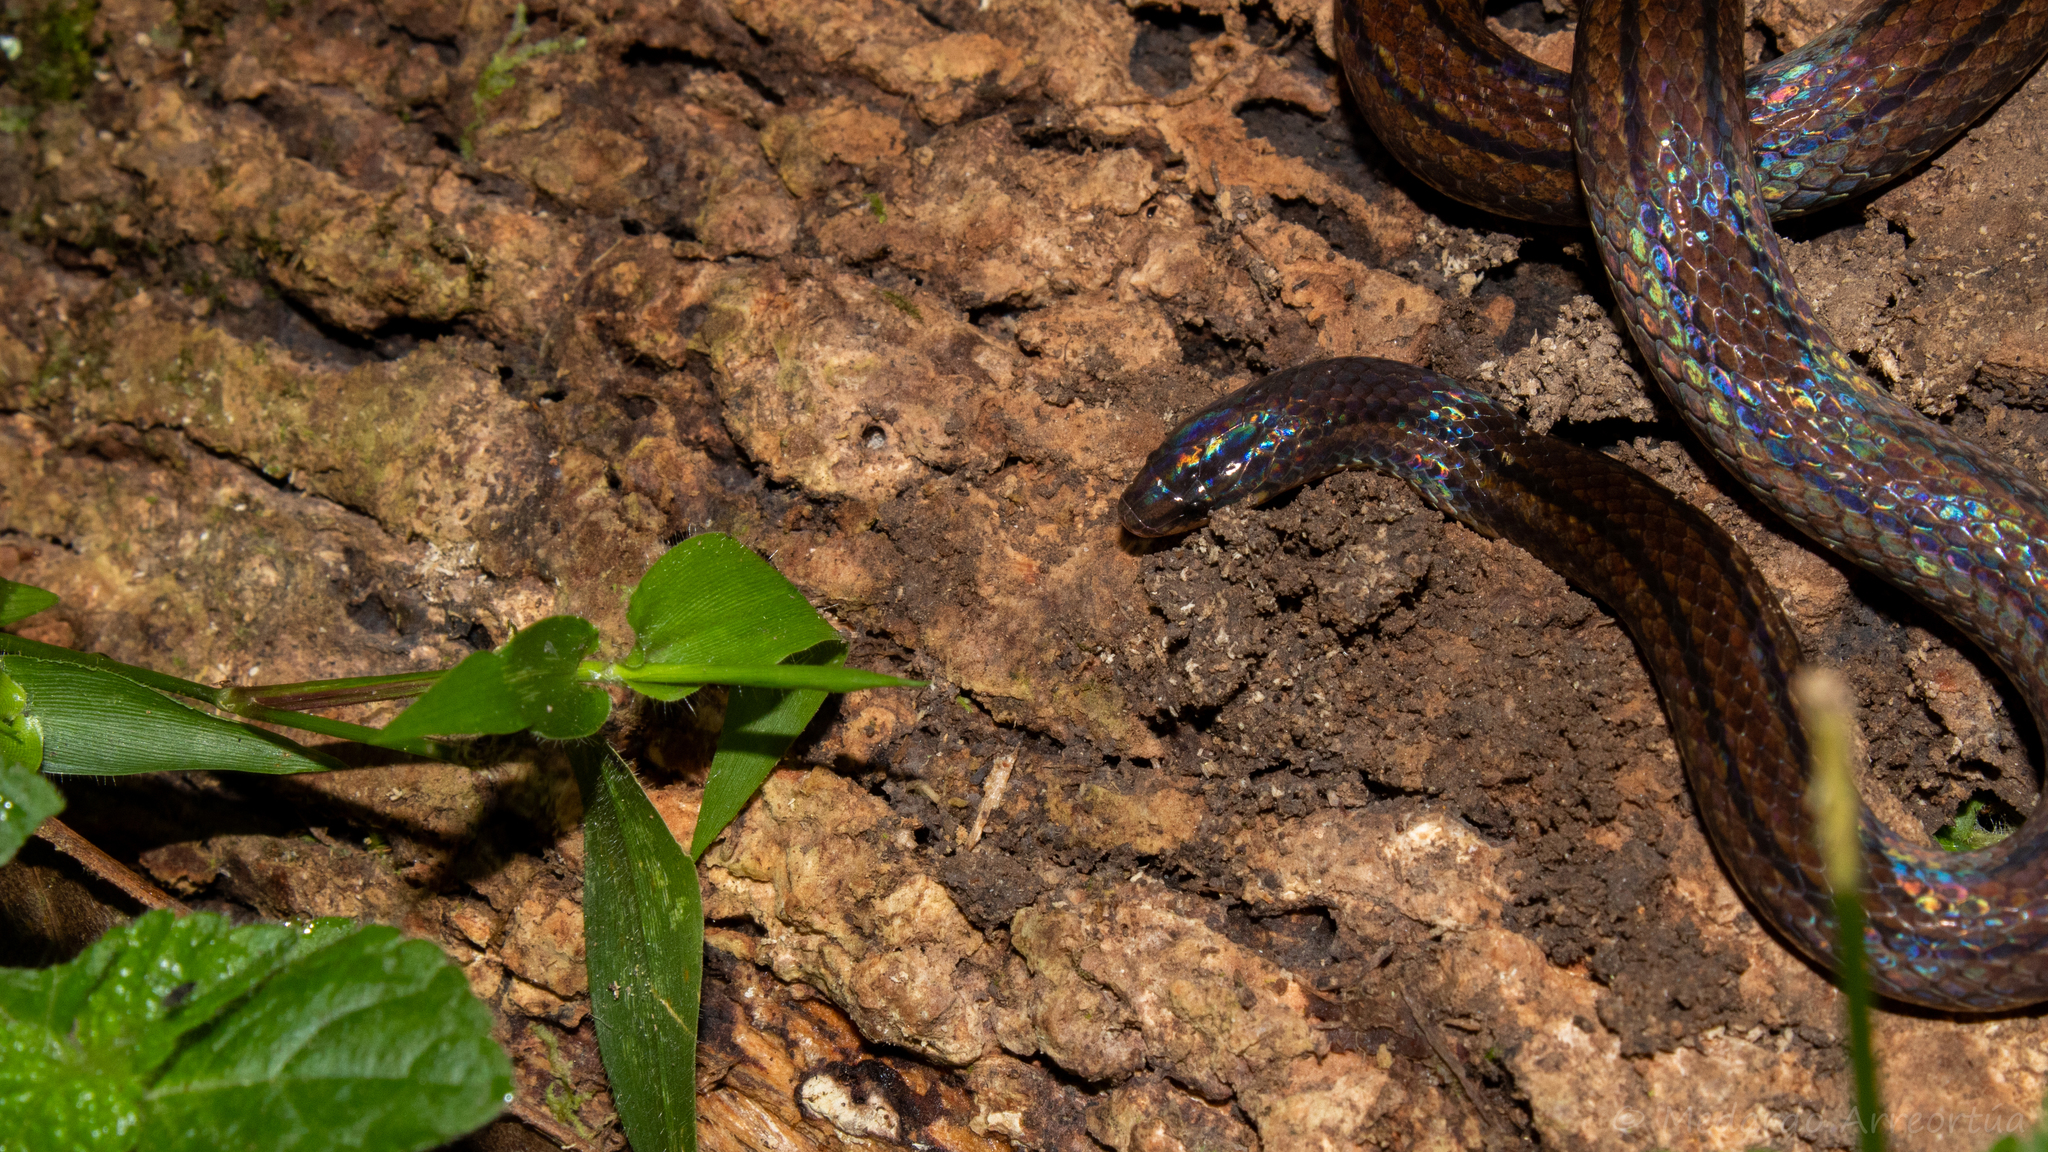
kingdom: Animalia
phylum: Chordata
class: Squamata
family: Colubridae
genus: Adelphicos
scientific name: Adelphicos visoninum
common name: Middle american burrowing snake
